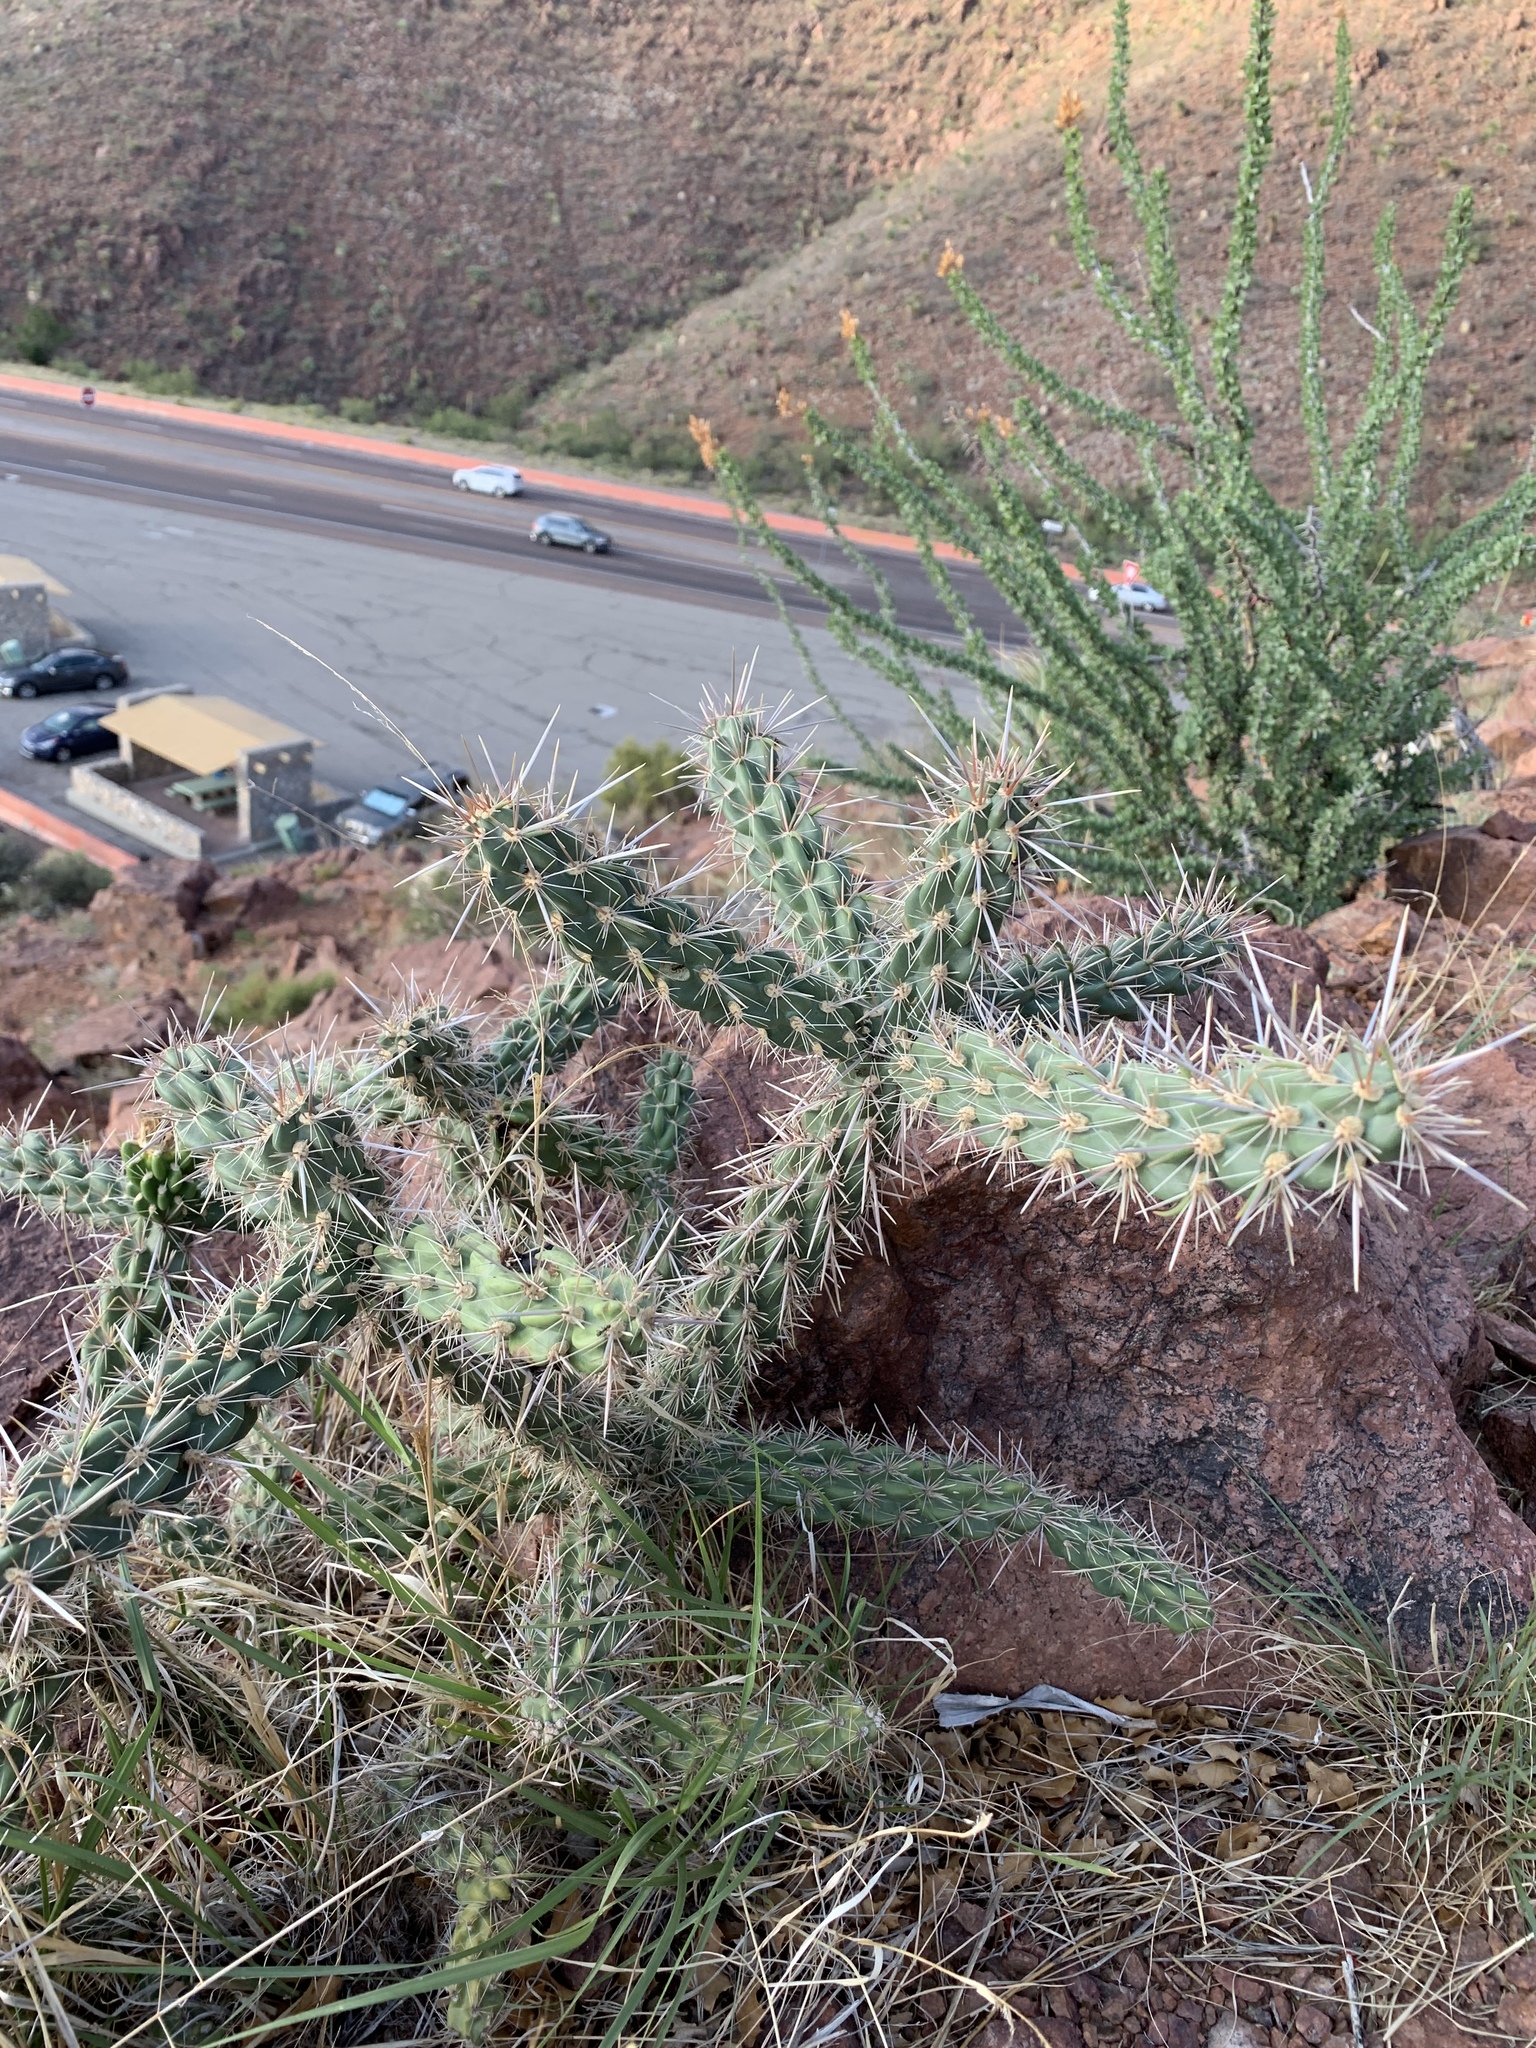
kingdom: Plantae
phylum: Tracheophyta
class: Magnoliopsida
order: Caryophyllales
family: Cactaceae
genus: Cylindropuntia
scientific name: Cylindropuntia imbricata
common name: Candelabrum cactus
